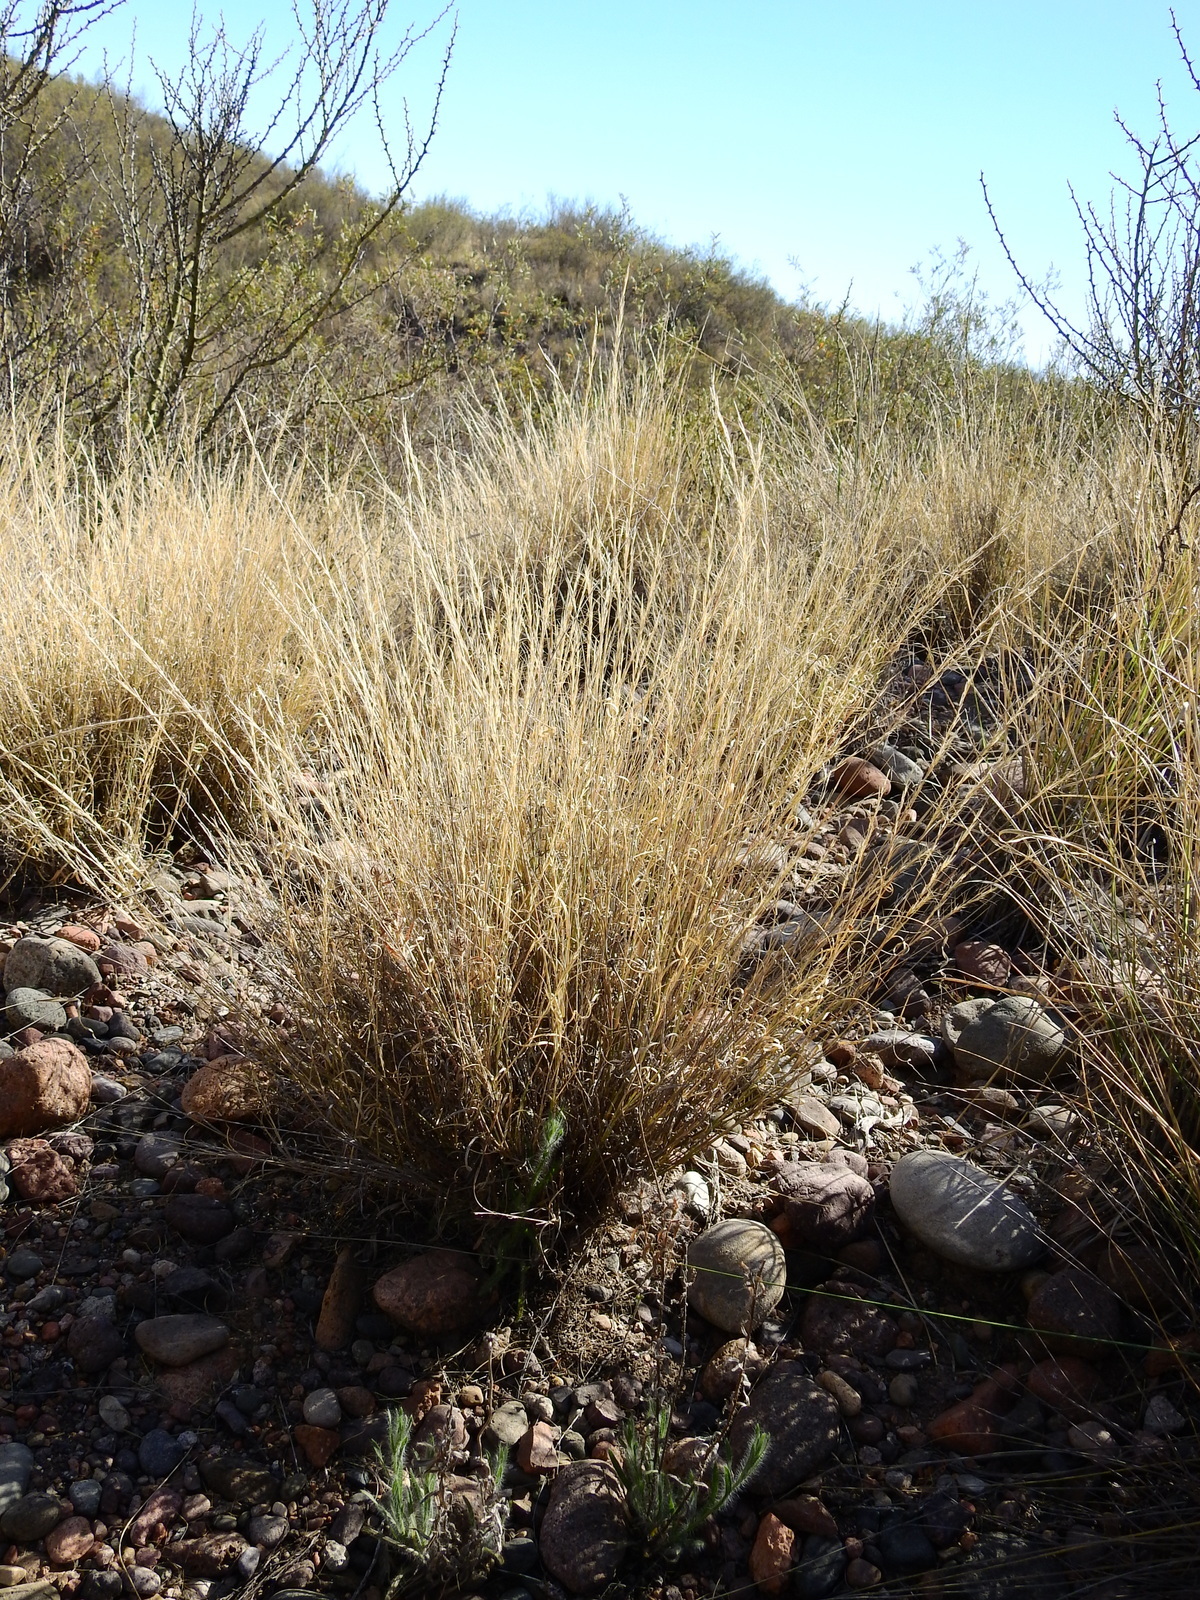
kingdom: Plantae
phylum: Tracheophyta
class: Liliopsida
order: Poales
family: Poaceae
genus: Aristida
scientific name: Aristida mendocina
